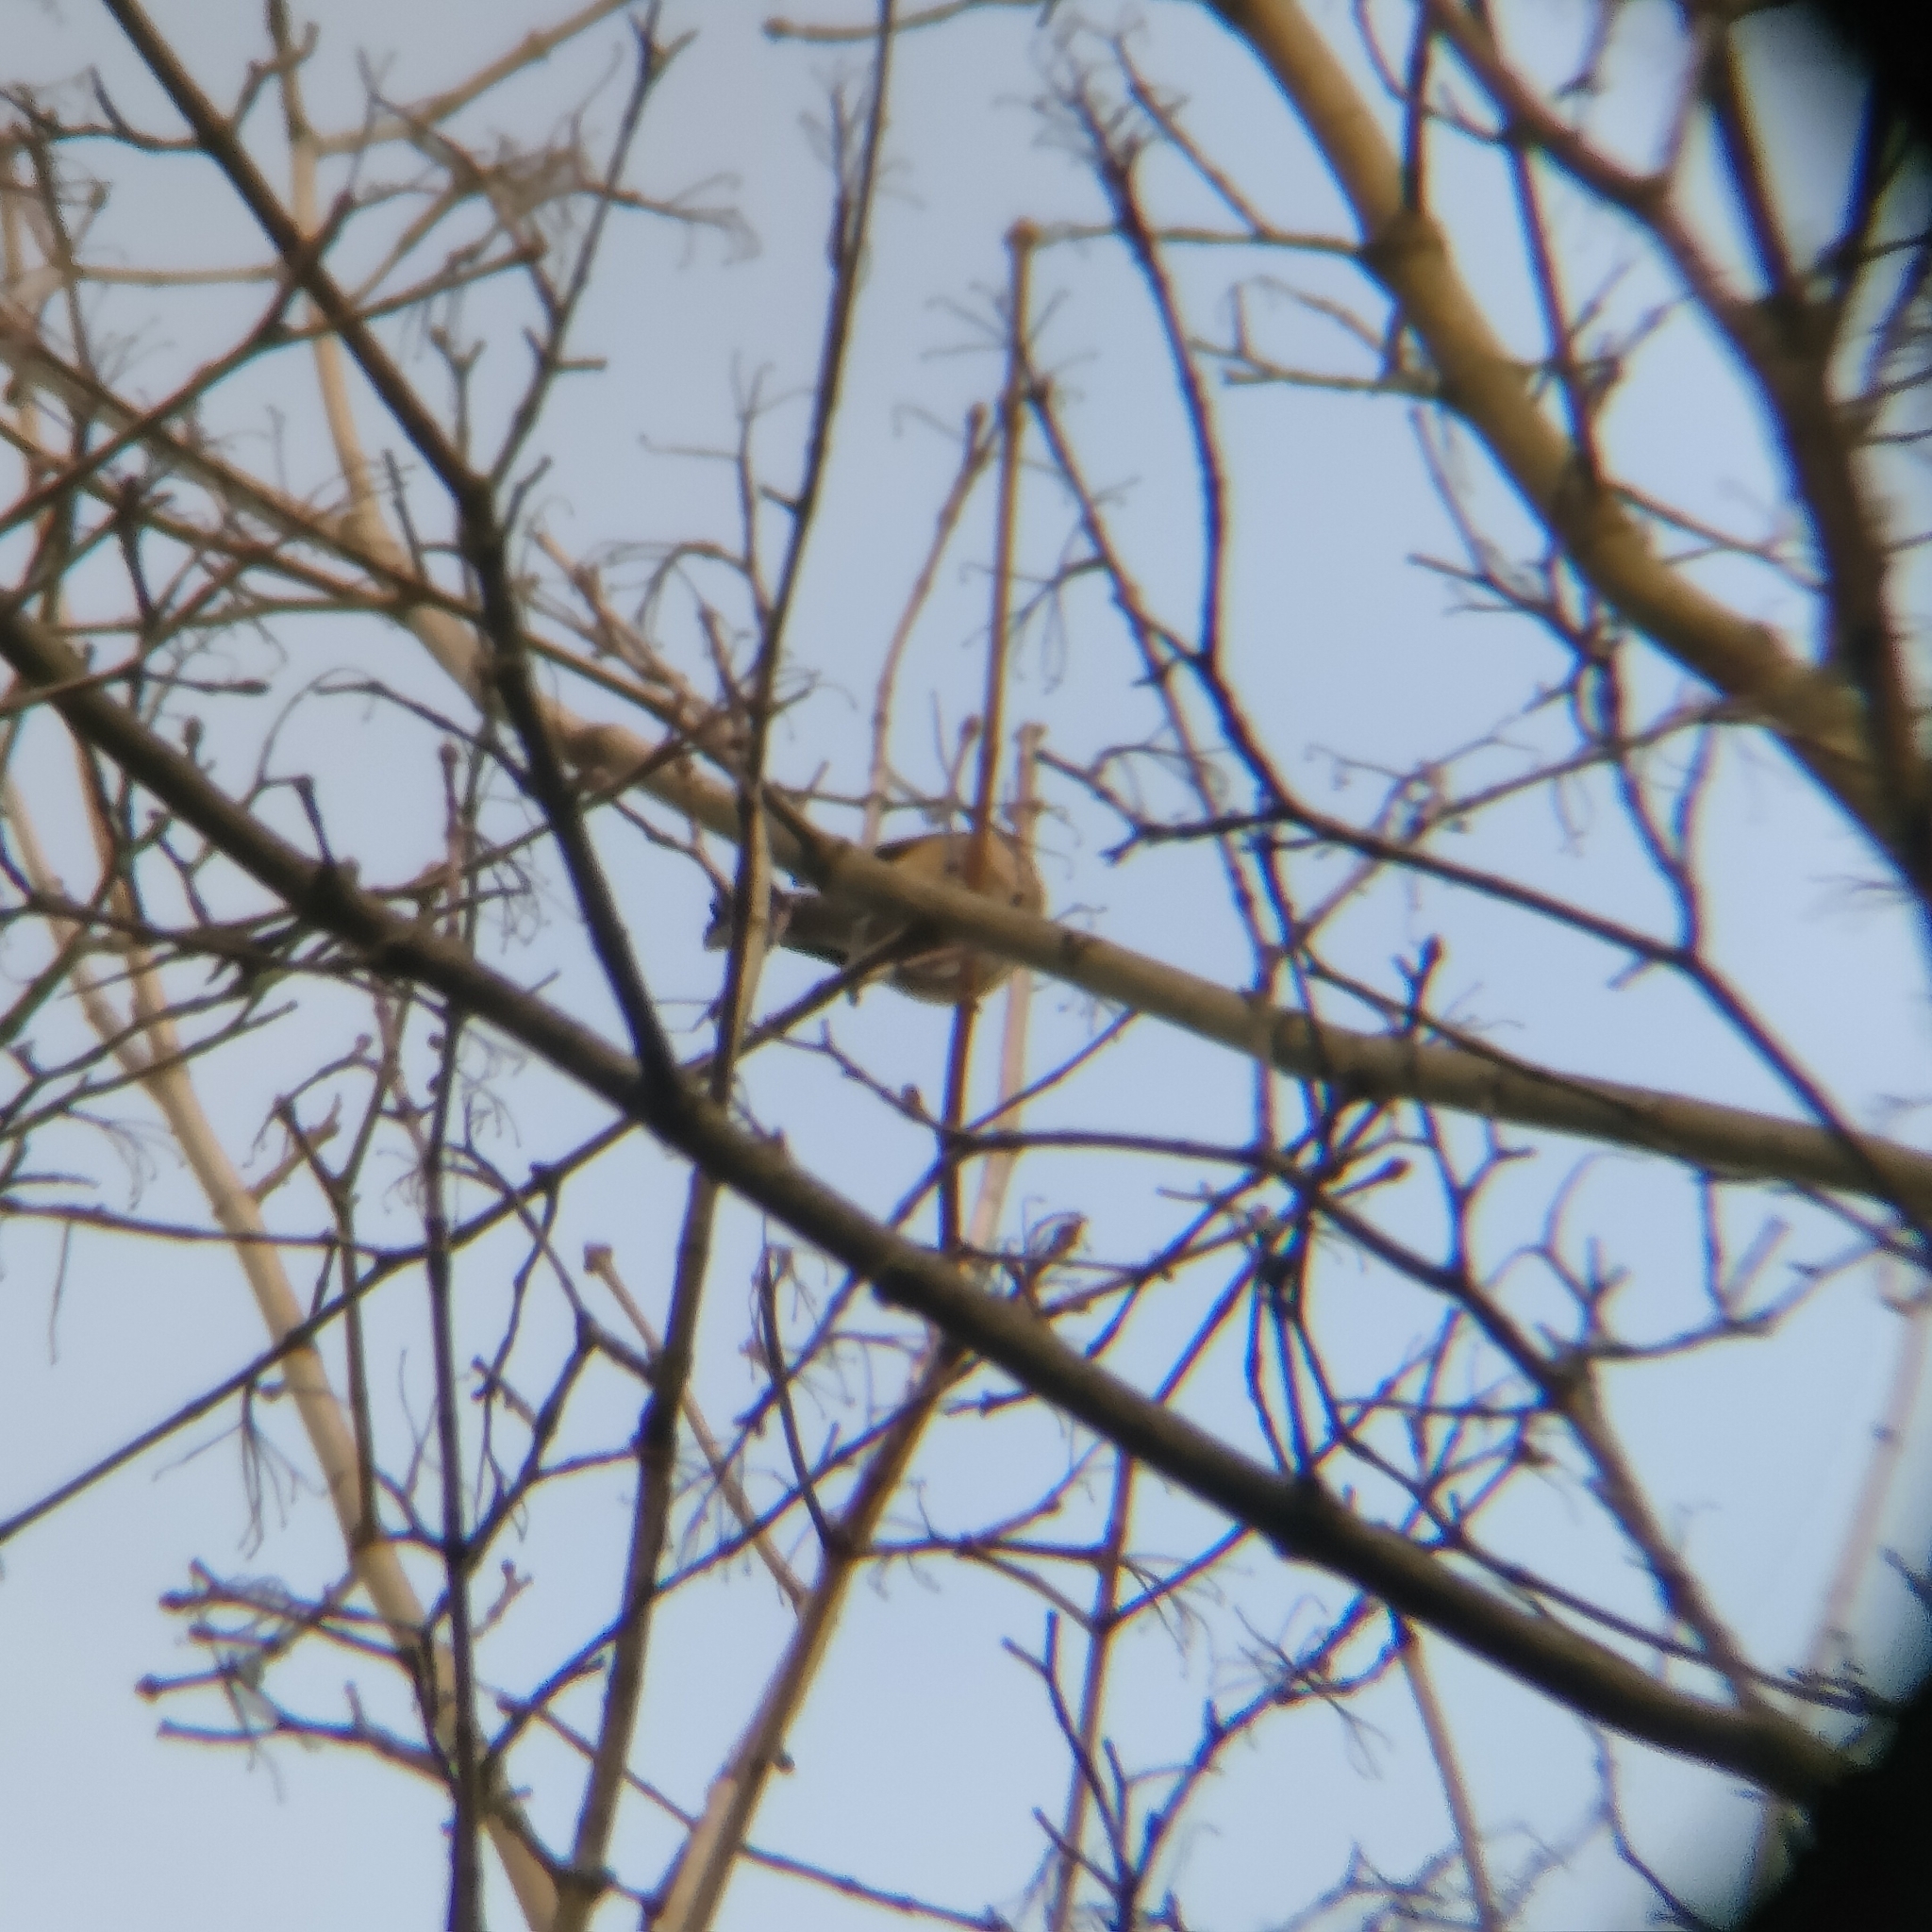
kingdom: Animalia
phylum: Chordata
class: Aves
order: Passeriformes
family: Fringillidae
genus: Fringilla
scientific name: Fringilla coelebs
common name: Common chaffinch
